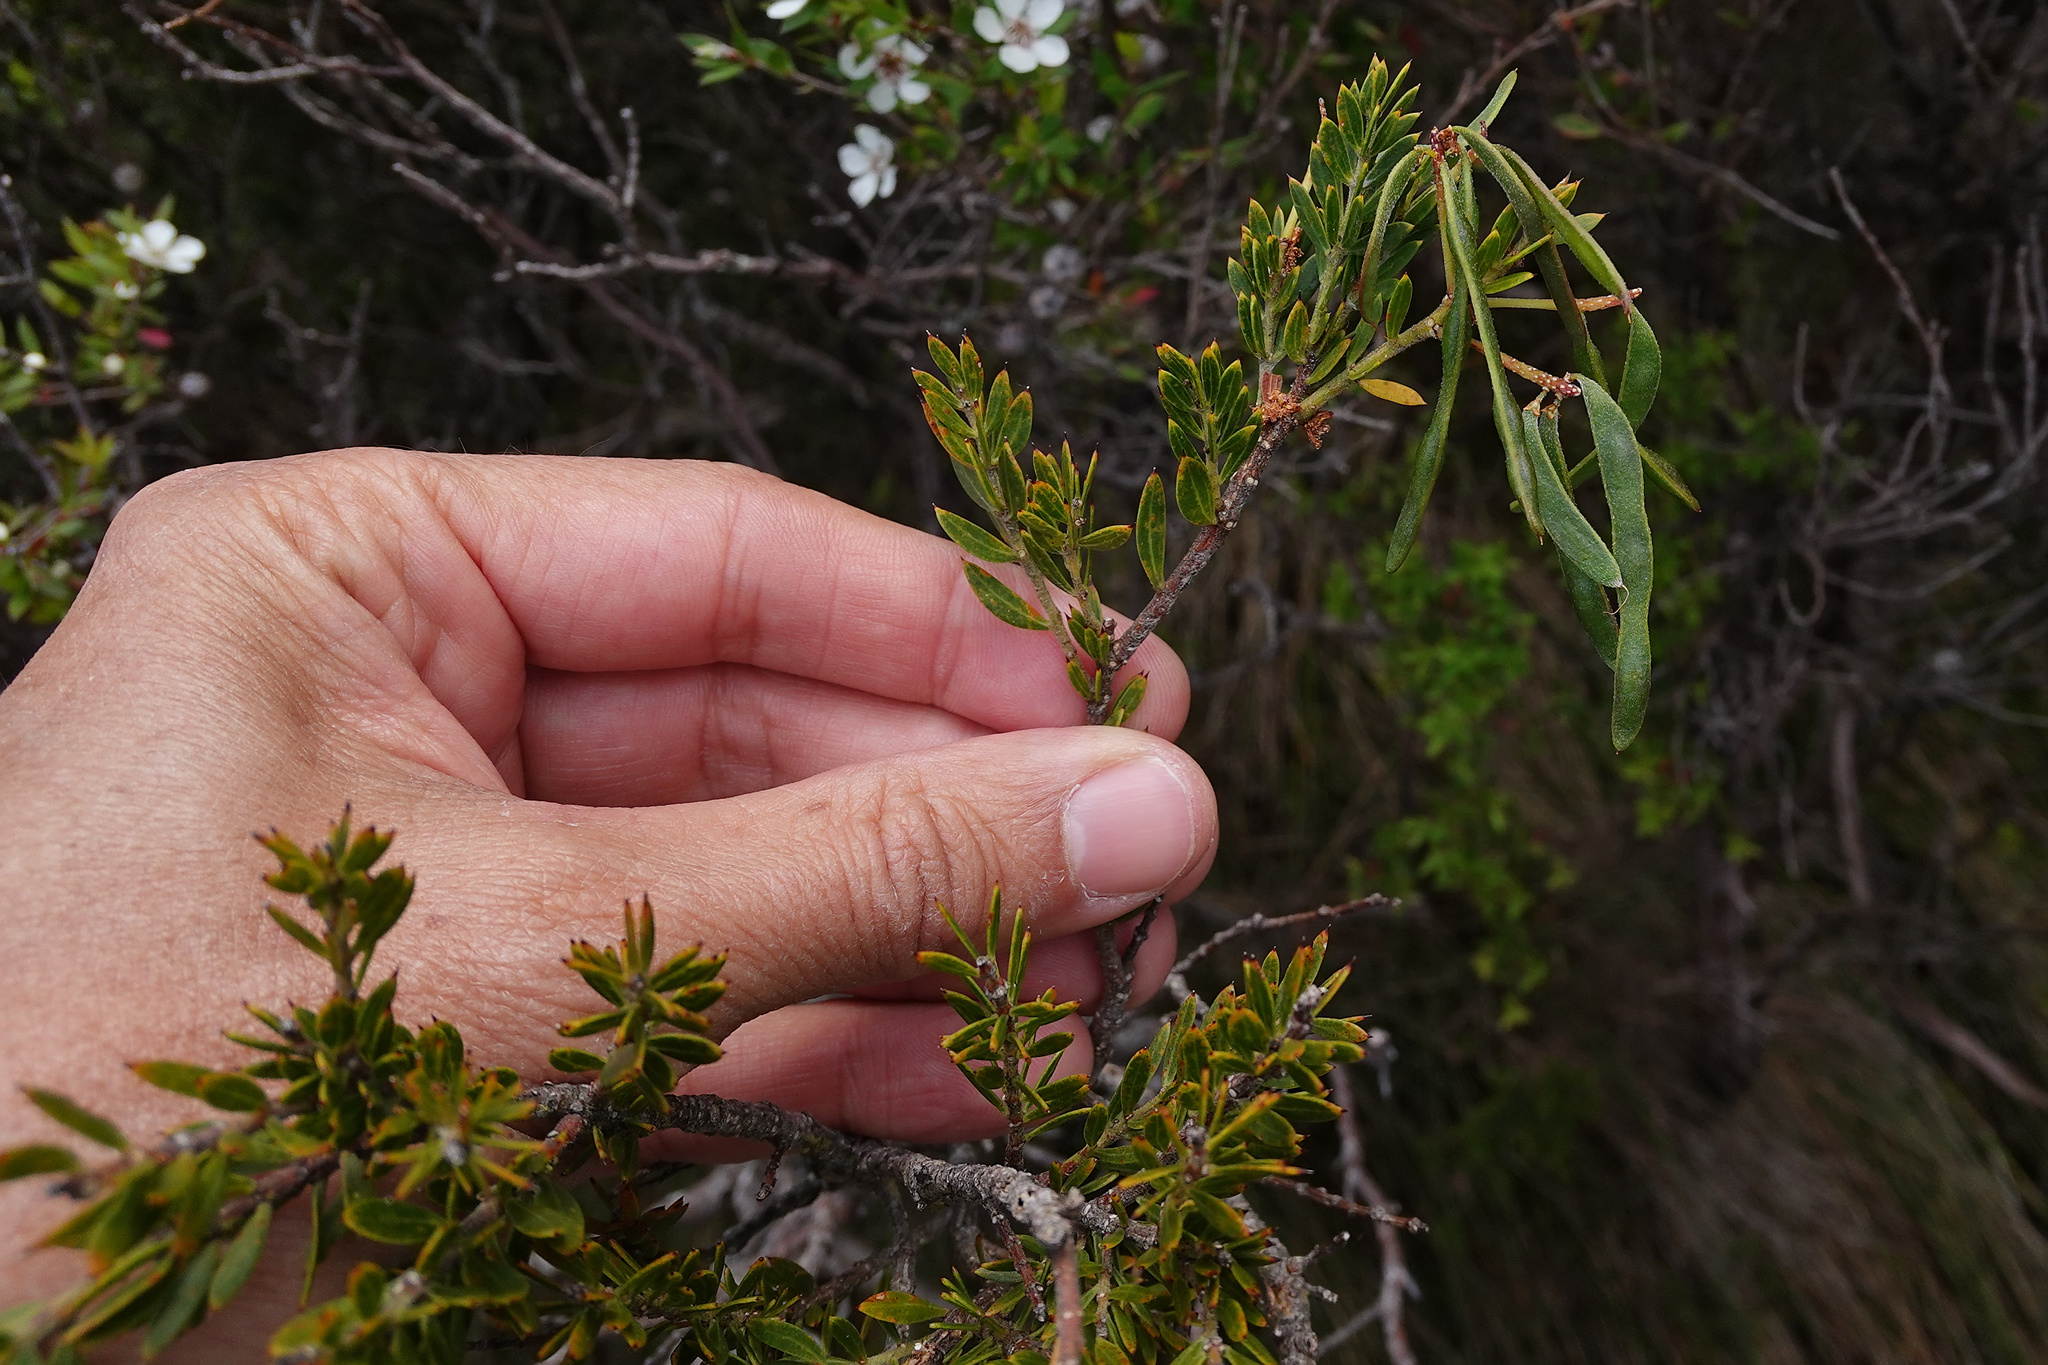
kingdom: Plantae
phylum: Tracheophyta
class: Magnoliopsida
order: Fabales
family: Fabaceae
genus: Acacia
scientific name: Acacia verticillata
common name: Prickly moses
